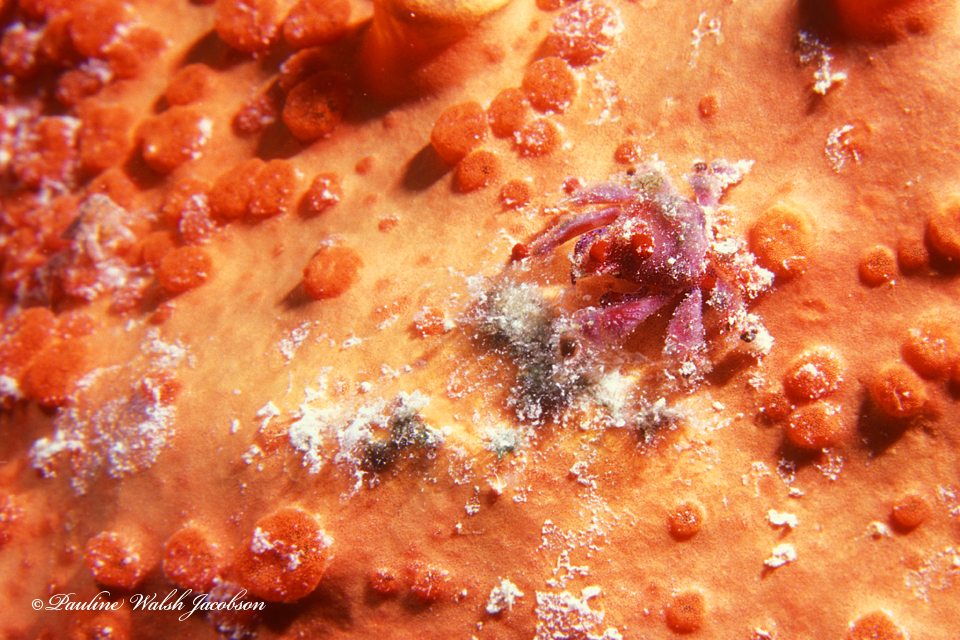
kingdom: Animalia
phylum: Arthropoda
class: Malacostraca
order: Decapoda
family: Epialtidae
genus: Pelia
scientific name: Pelia mutica
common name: Cryptic teardrop crab
